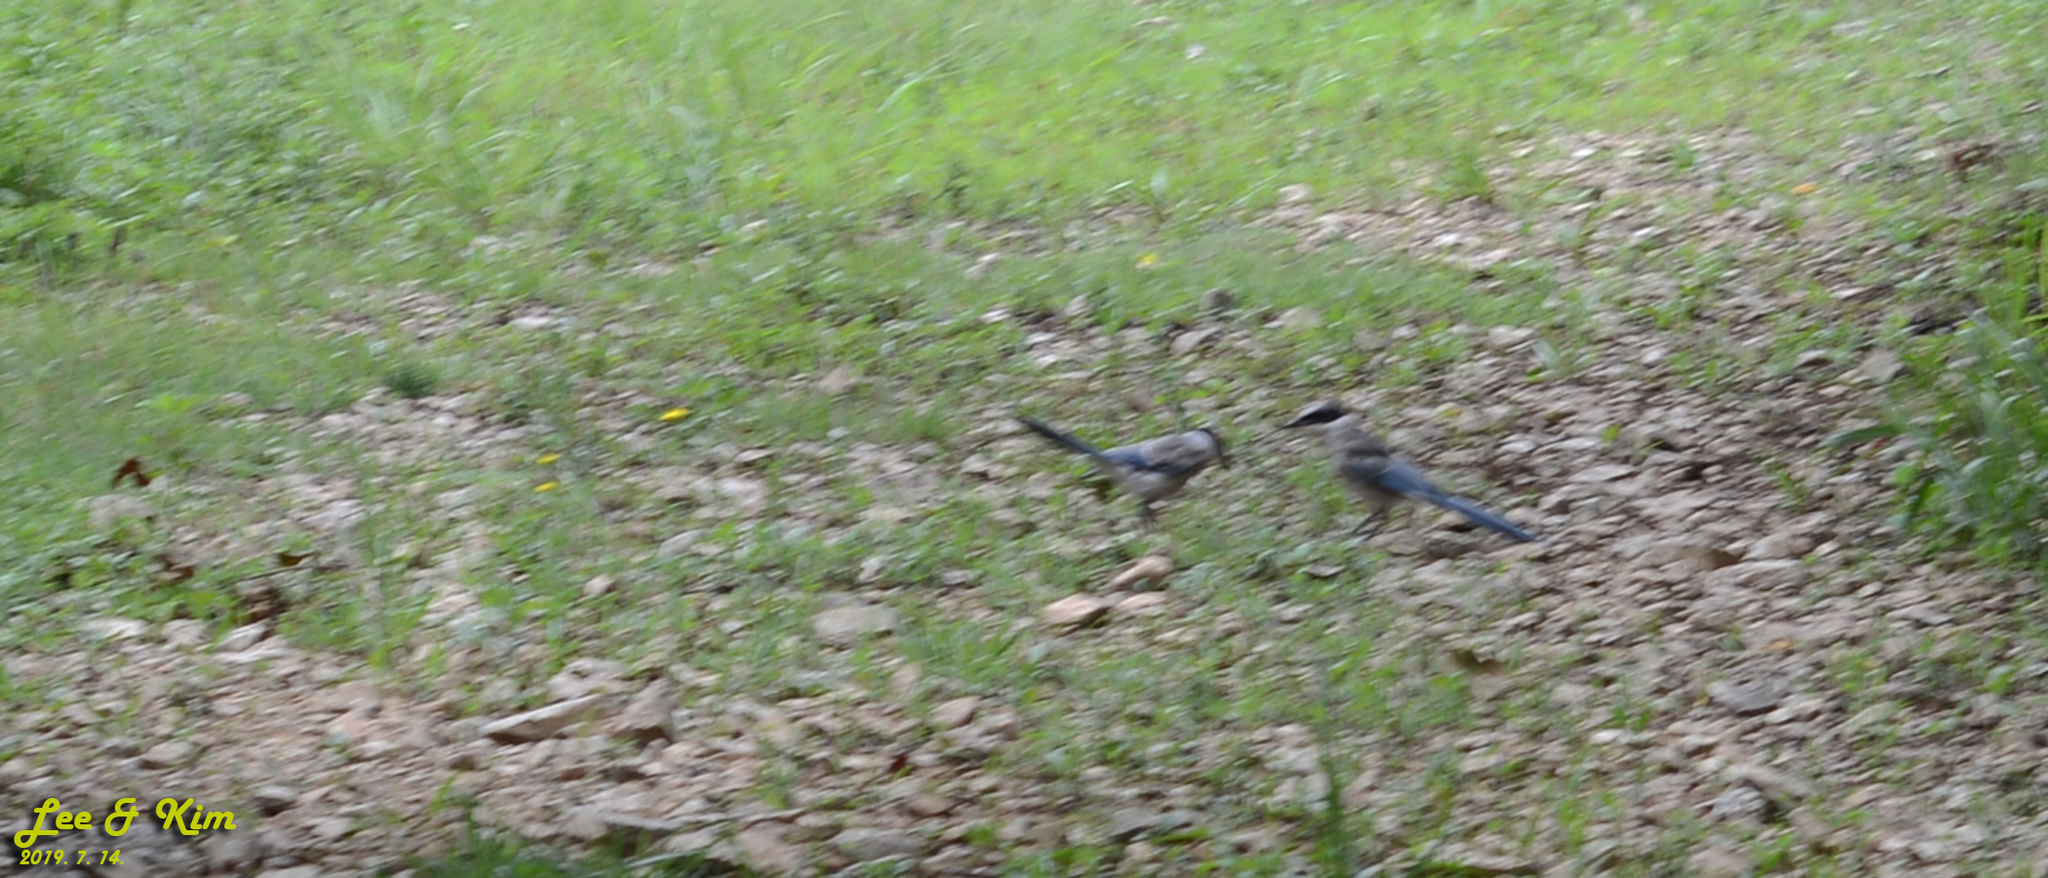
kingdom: Animalia
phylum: Chordata
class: Aves
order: Passeriformes
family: Corvidae
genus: Cyanopica
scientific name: Cyanopica cyanus
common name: Azure-winged magpie
